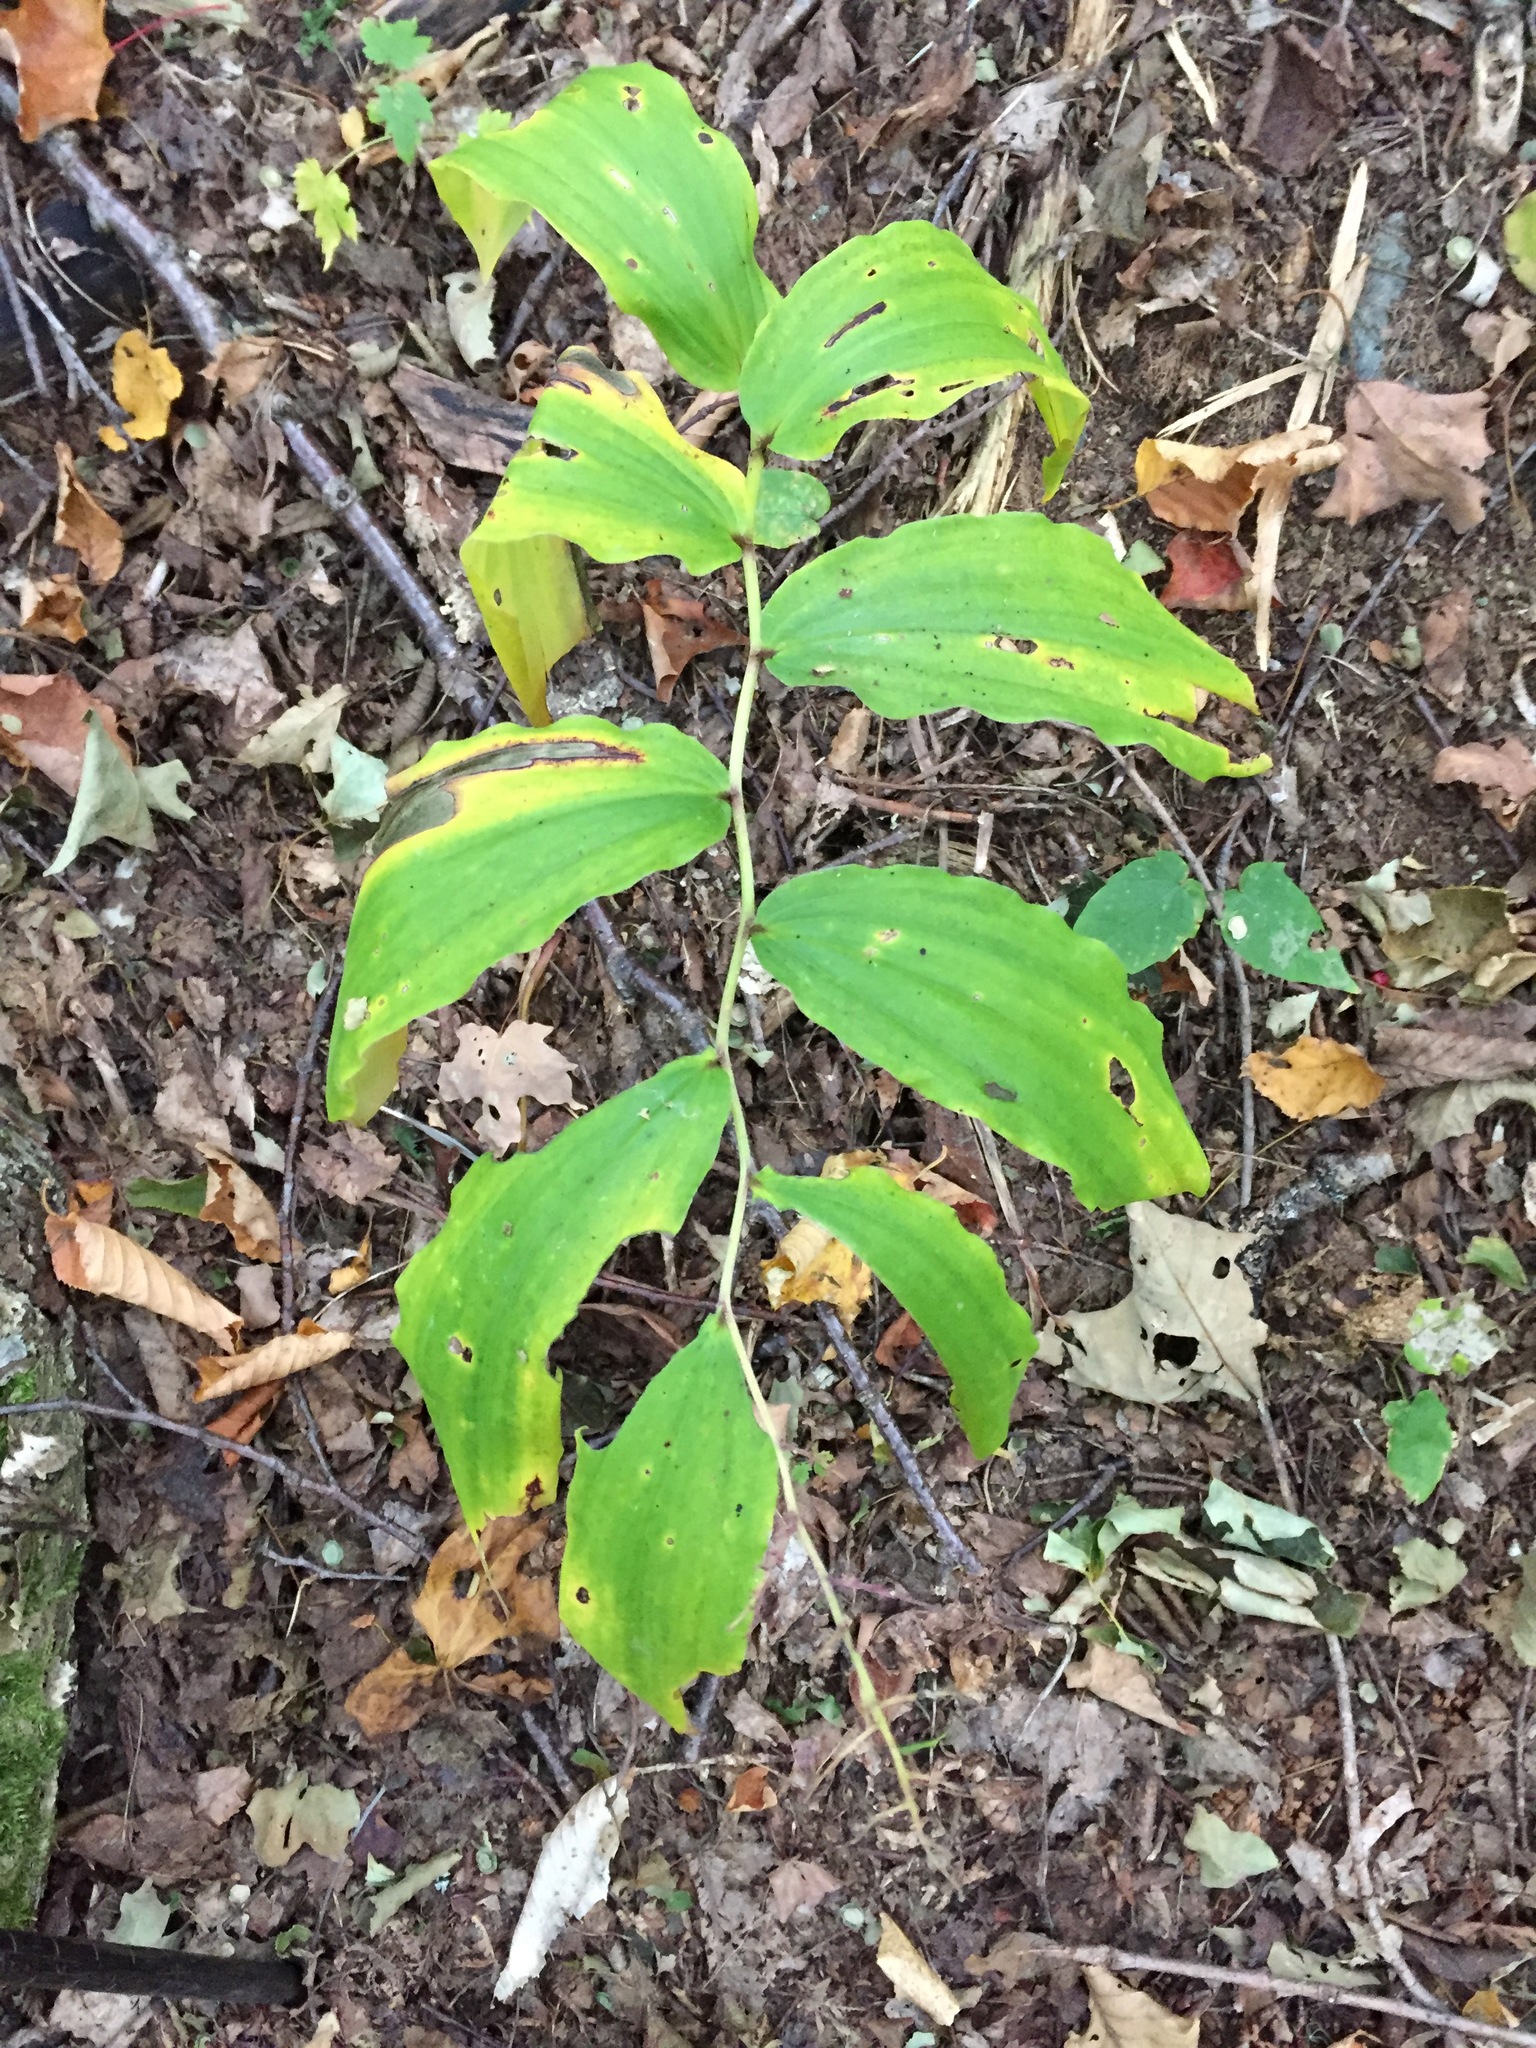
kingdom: Plantae
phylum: Tracheophyta
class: Liliopsida
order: Asparagales
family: Asparagaceae
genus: Maianthemum
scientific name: Maianthemum racemosum
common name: False spikenard
